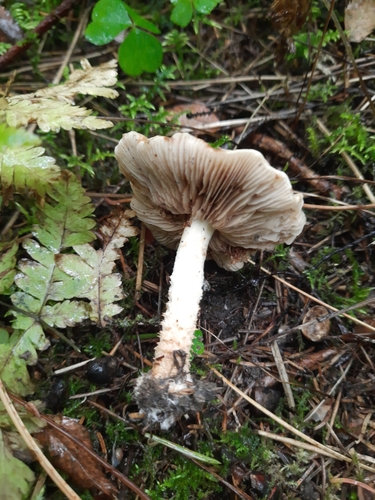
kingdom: Fungi
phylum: Basidiomycota
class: Agaricomycetes
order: Agaricales
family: Strophariaceae
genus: Pholiota
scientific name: Pholiota
